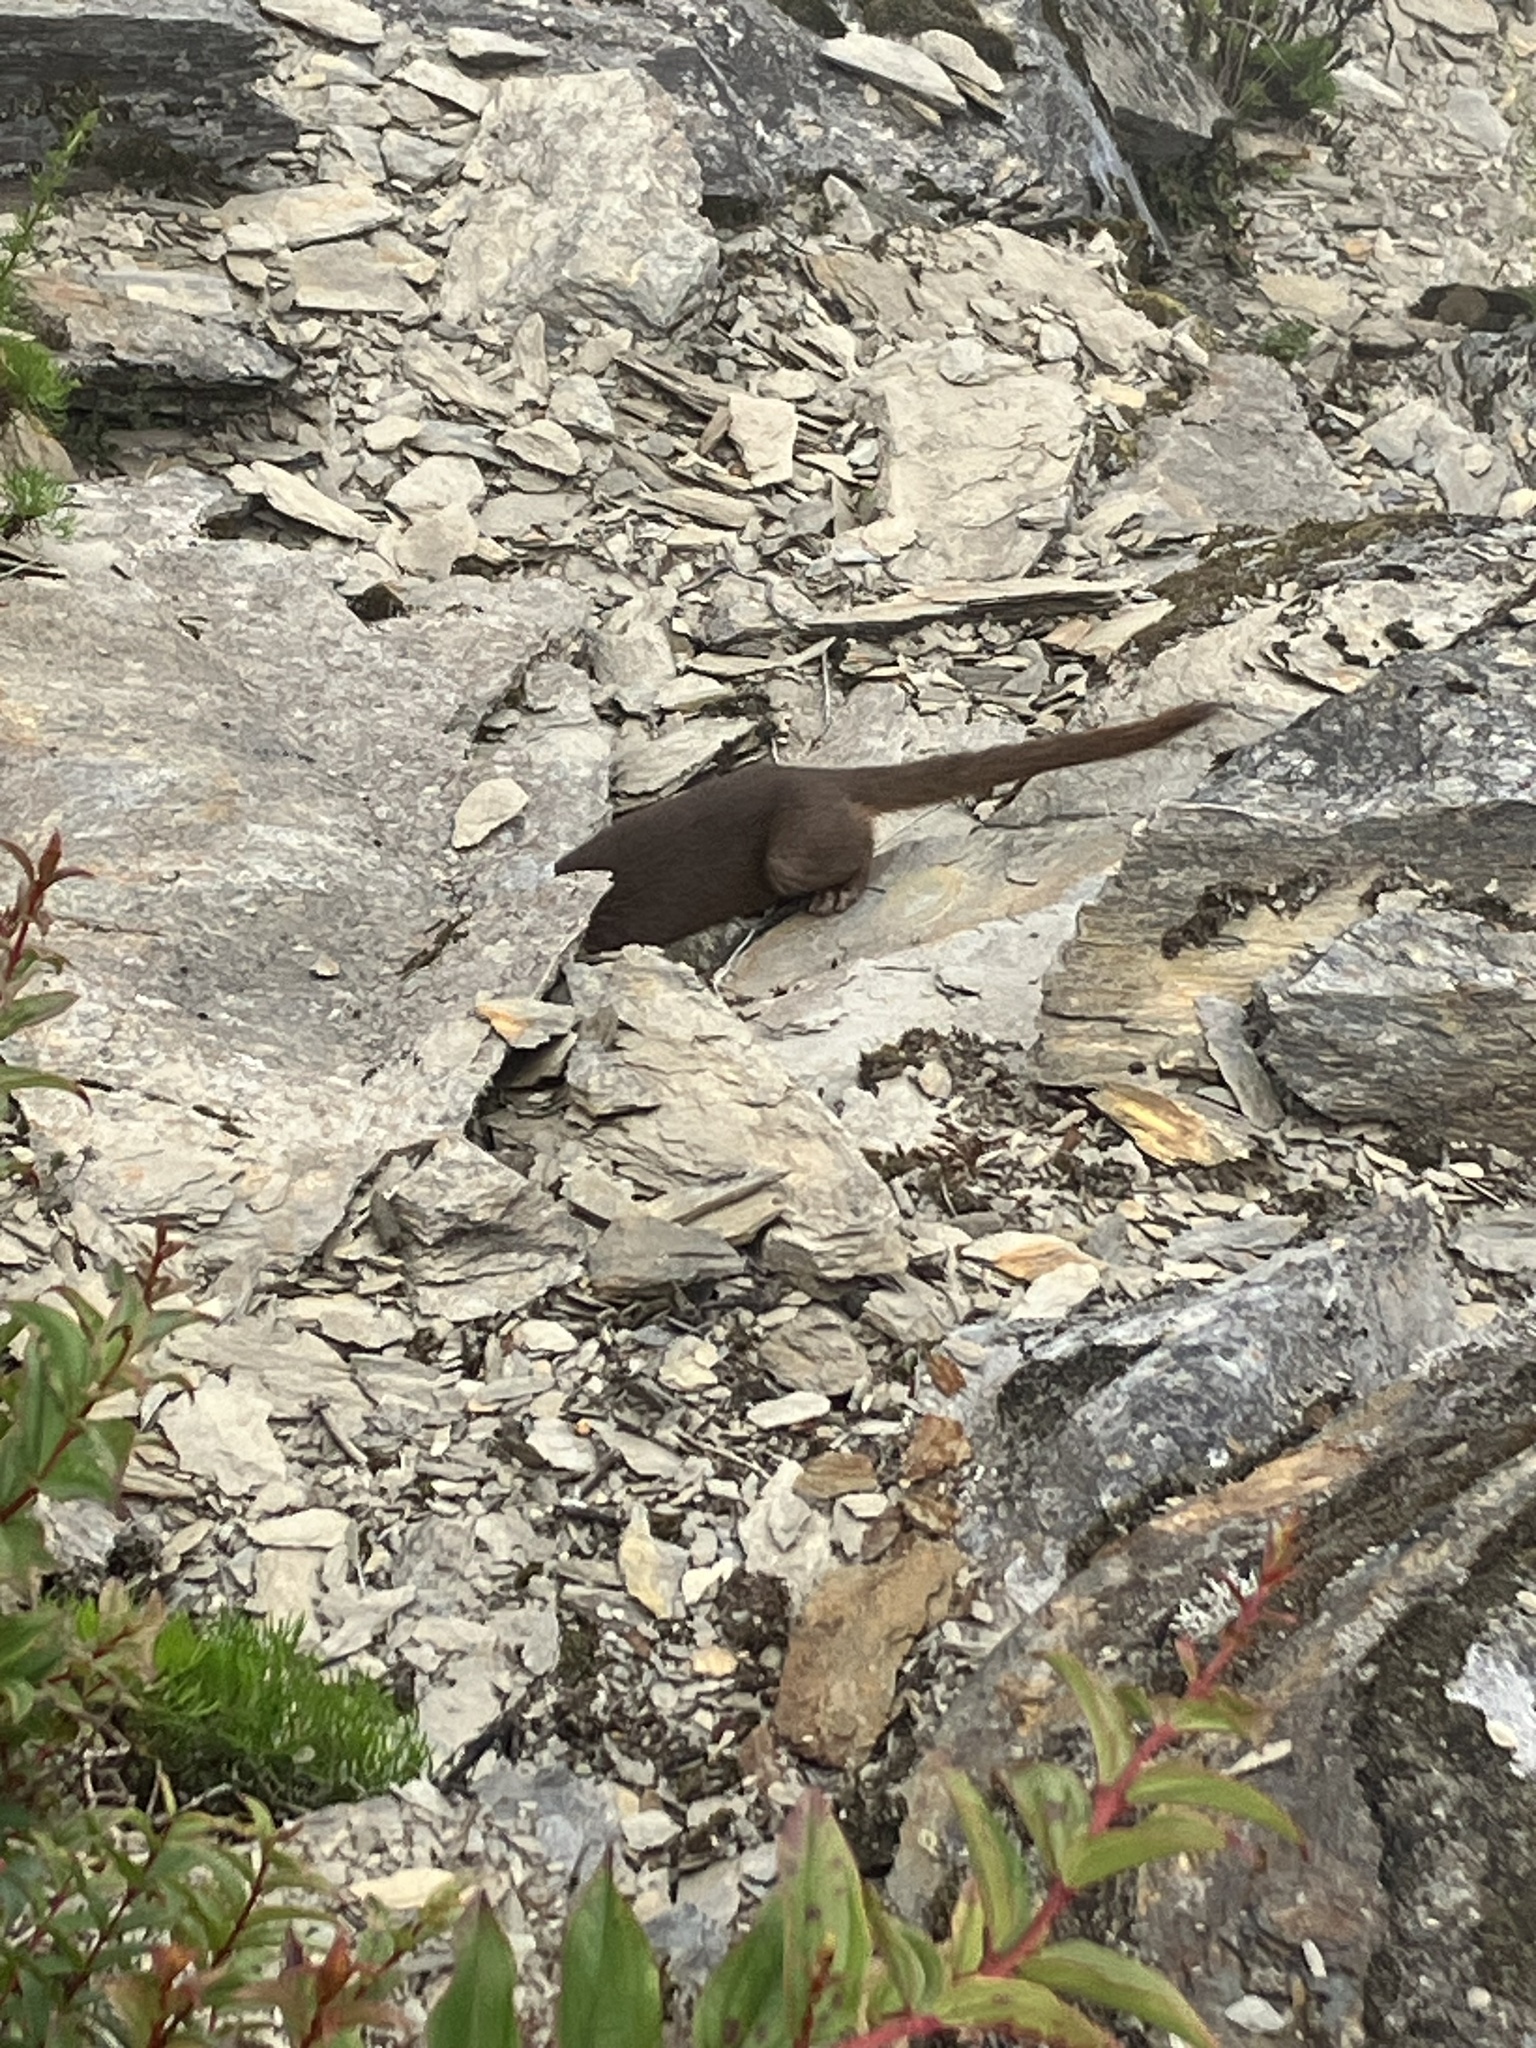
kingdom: Animalia
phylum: Chordata
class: Mammalia
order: Carnivora
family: Mustelidae
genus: Mustela
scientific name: Mustela sibirica
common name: Siberian weasel
